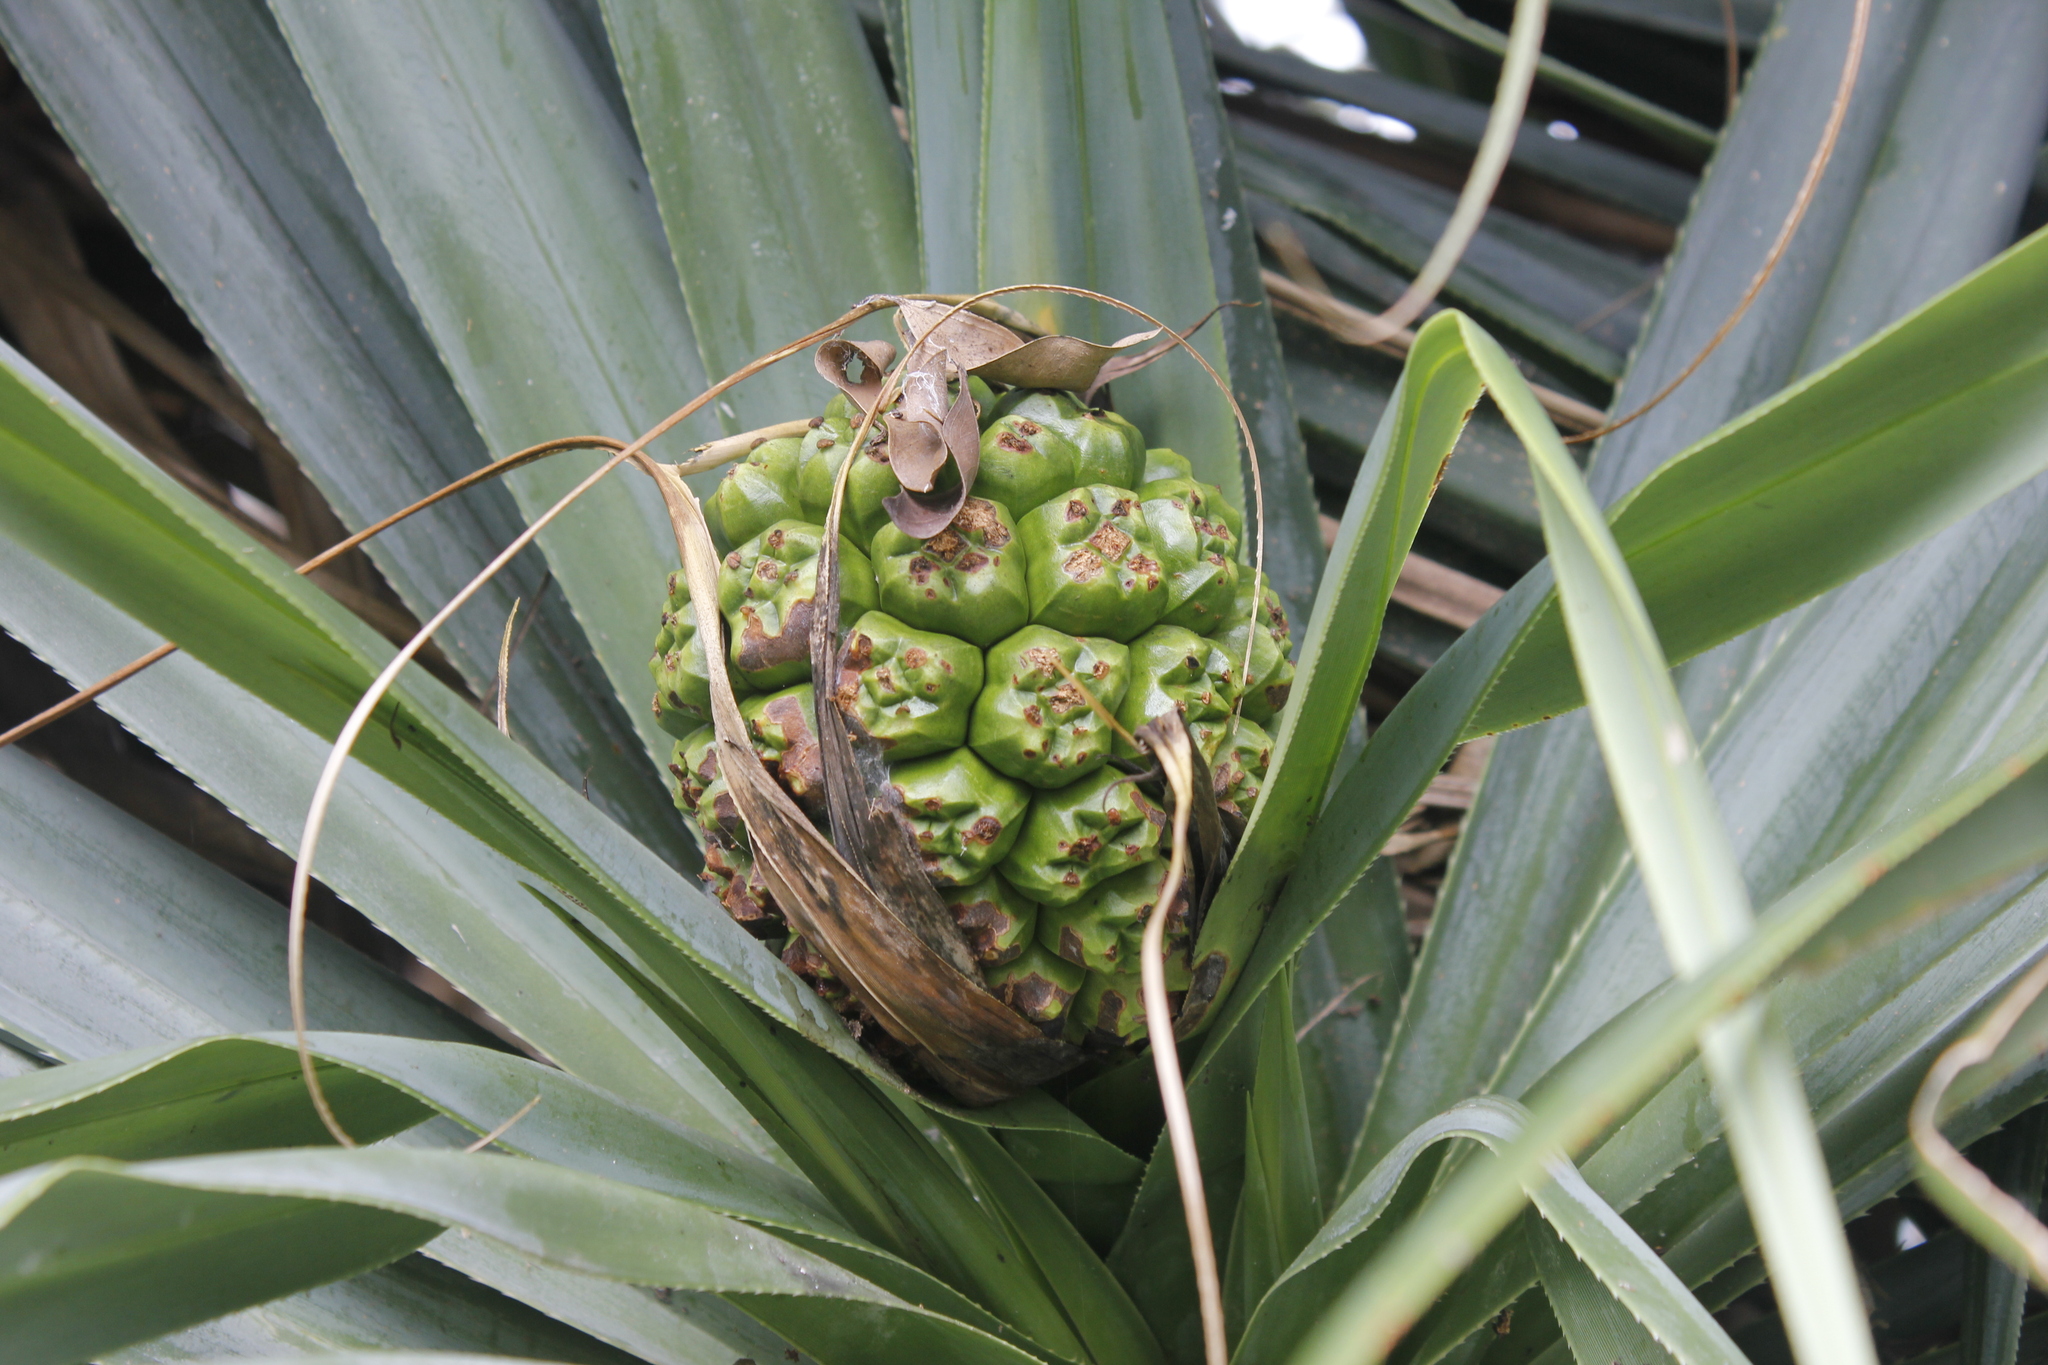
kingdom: Plantae
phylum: Tracheophyta
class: Liliopsida
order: Pandanales
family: Pandanaceae
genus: Pandanus
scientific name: Pandanus tectorius
